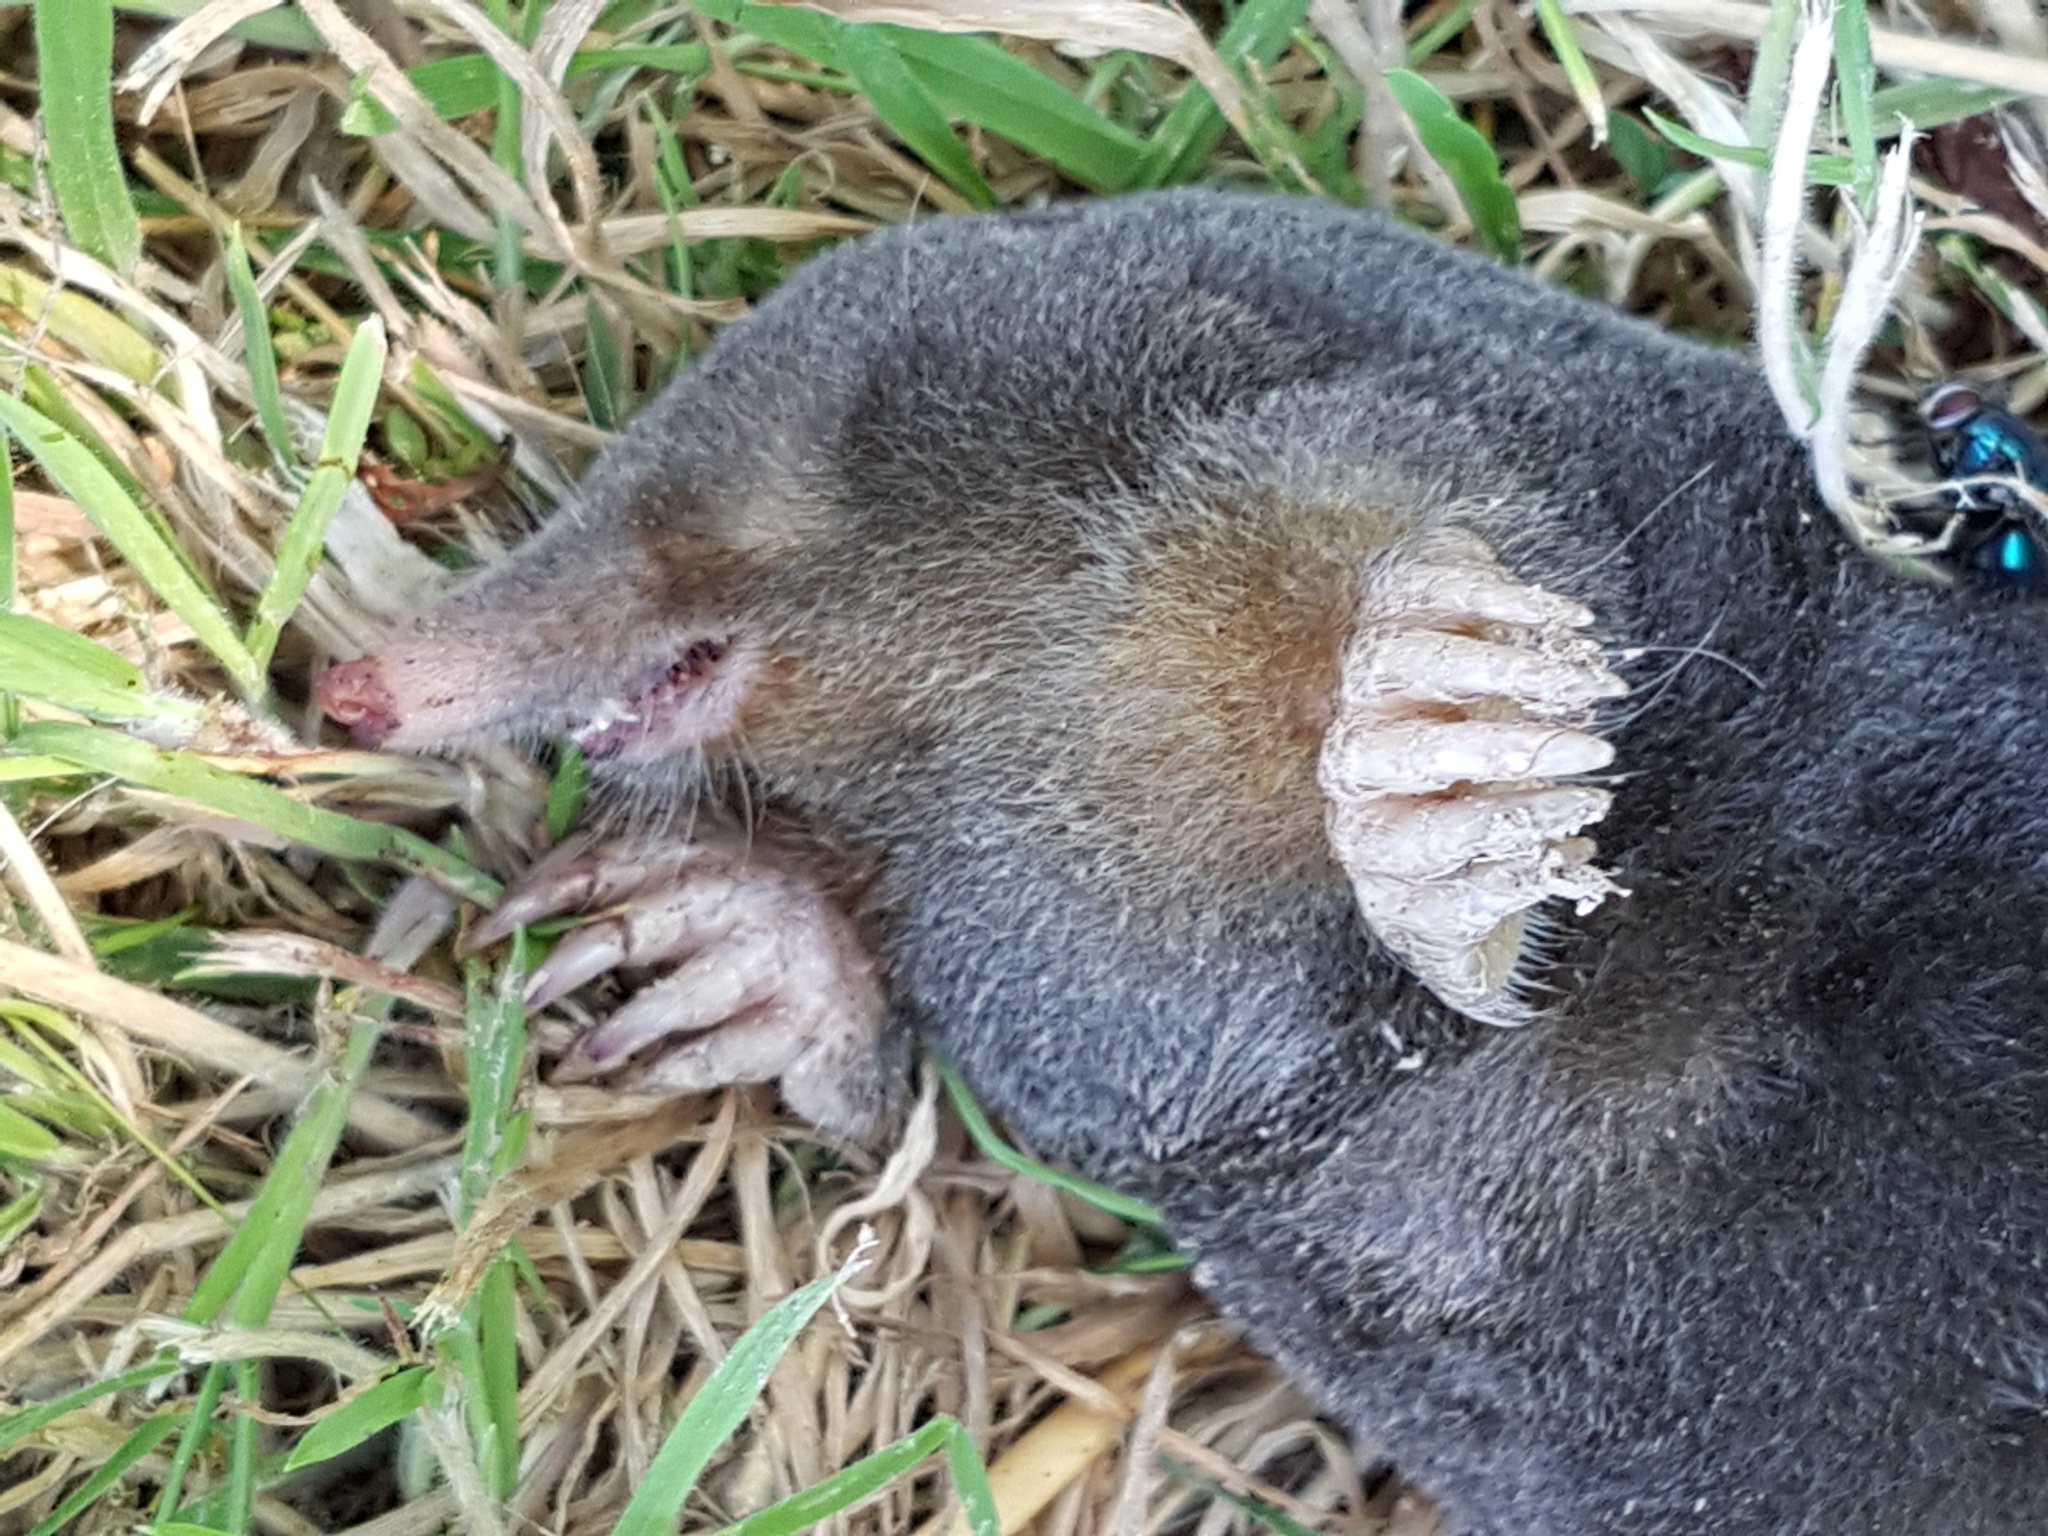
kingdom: Animalia
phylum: Chordata
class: Mammalia
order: Soricomorpha
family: Talpidae
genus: Talpa
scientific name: Talpa europaea
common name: European mole
